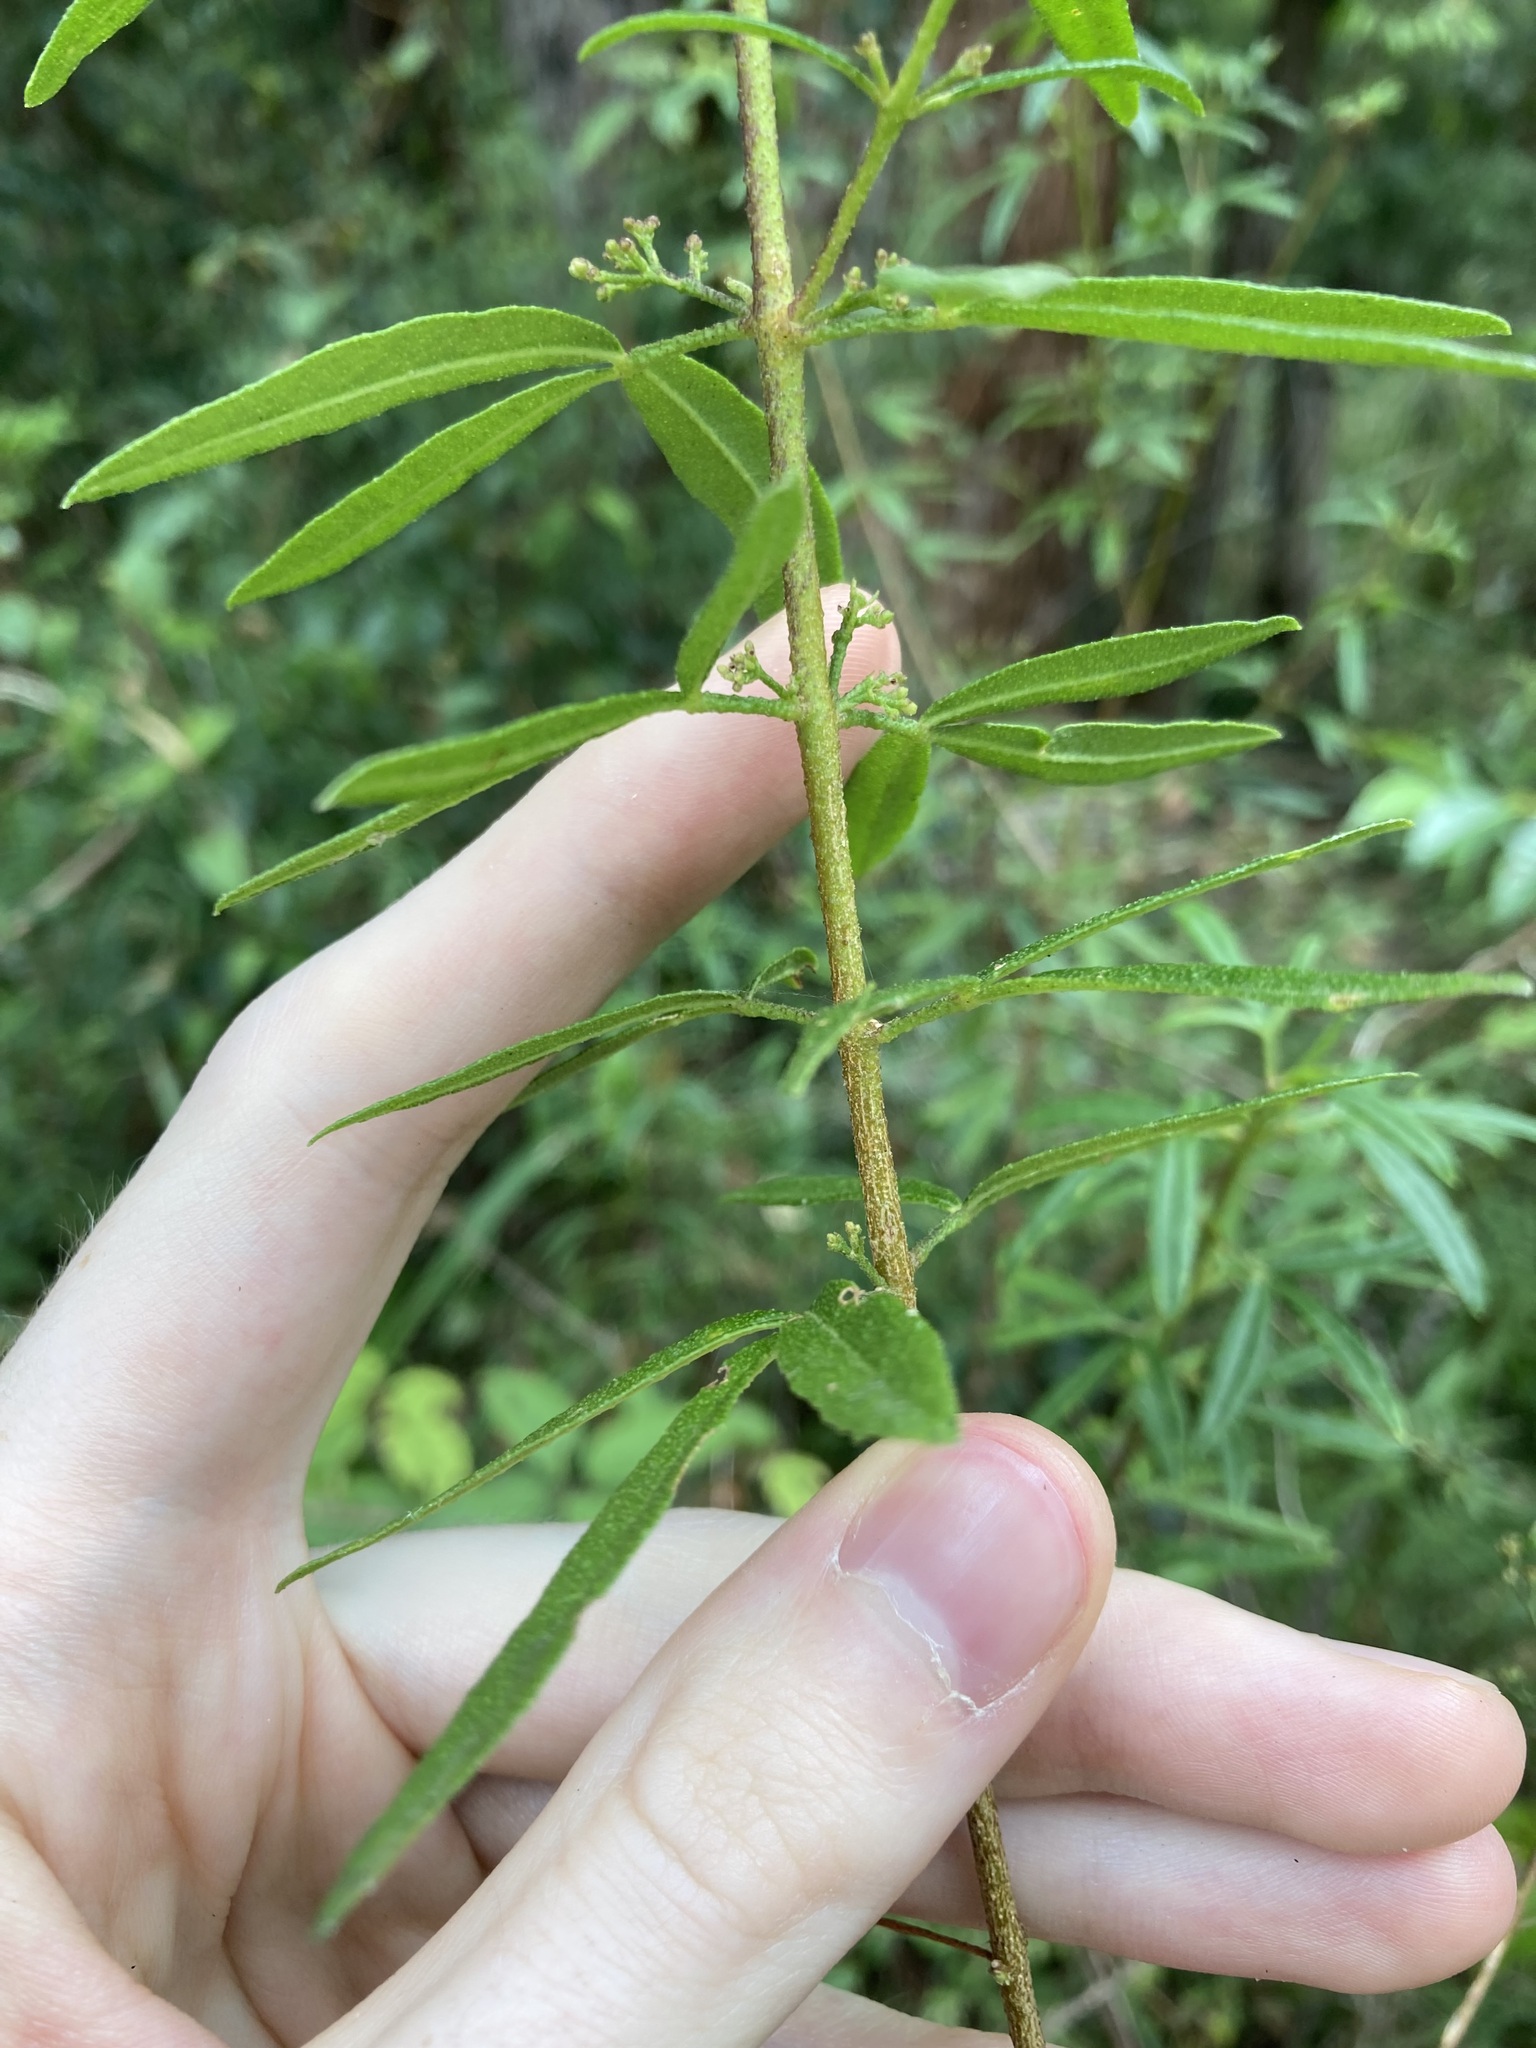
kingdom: Plantae
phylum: Tracheophyta
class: Magnoliopsida
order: Sapindales
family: Rutaceae
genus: Zieria
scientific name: Zieria smithii
